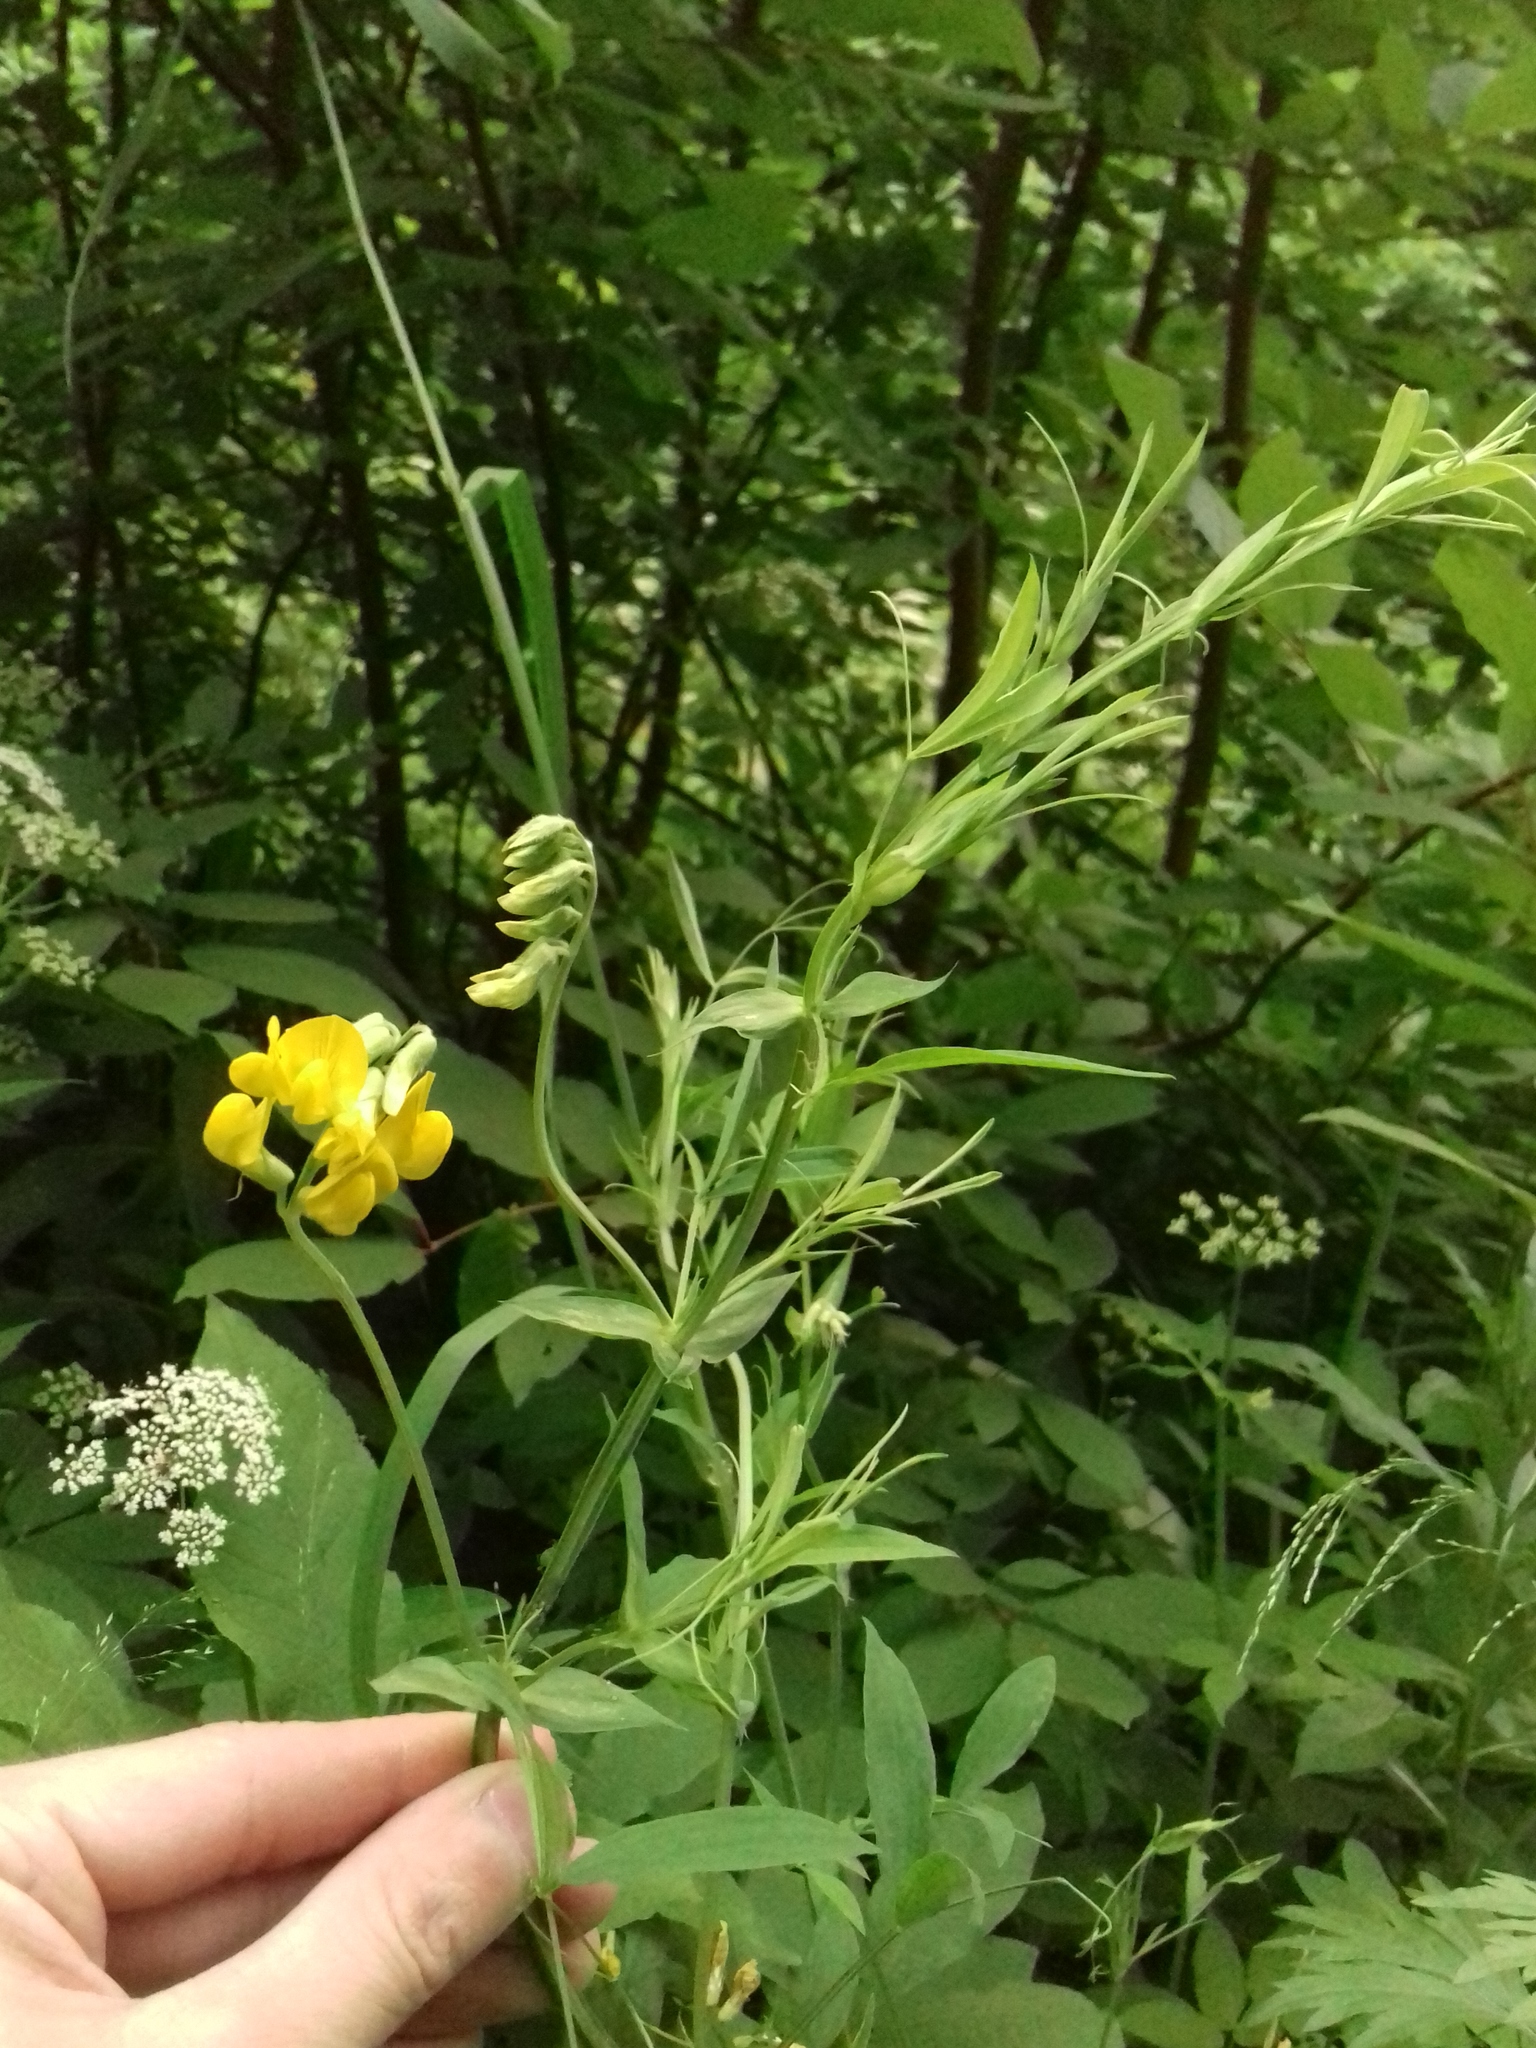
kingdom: Plantae
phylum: Tracheophyta
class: Magnoliopsida
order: Fabales
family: Fabaceae
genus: Lathyrus
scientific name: Lathyrus pratensis
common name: Meadow vetchling
